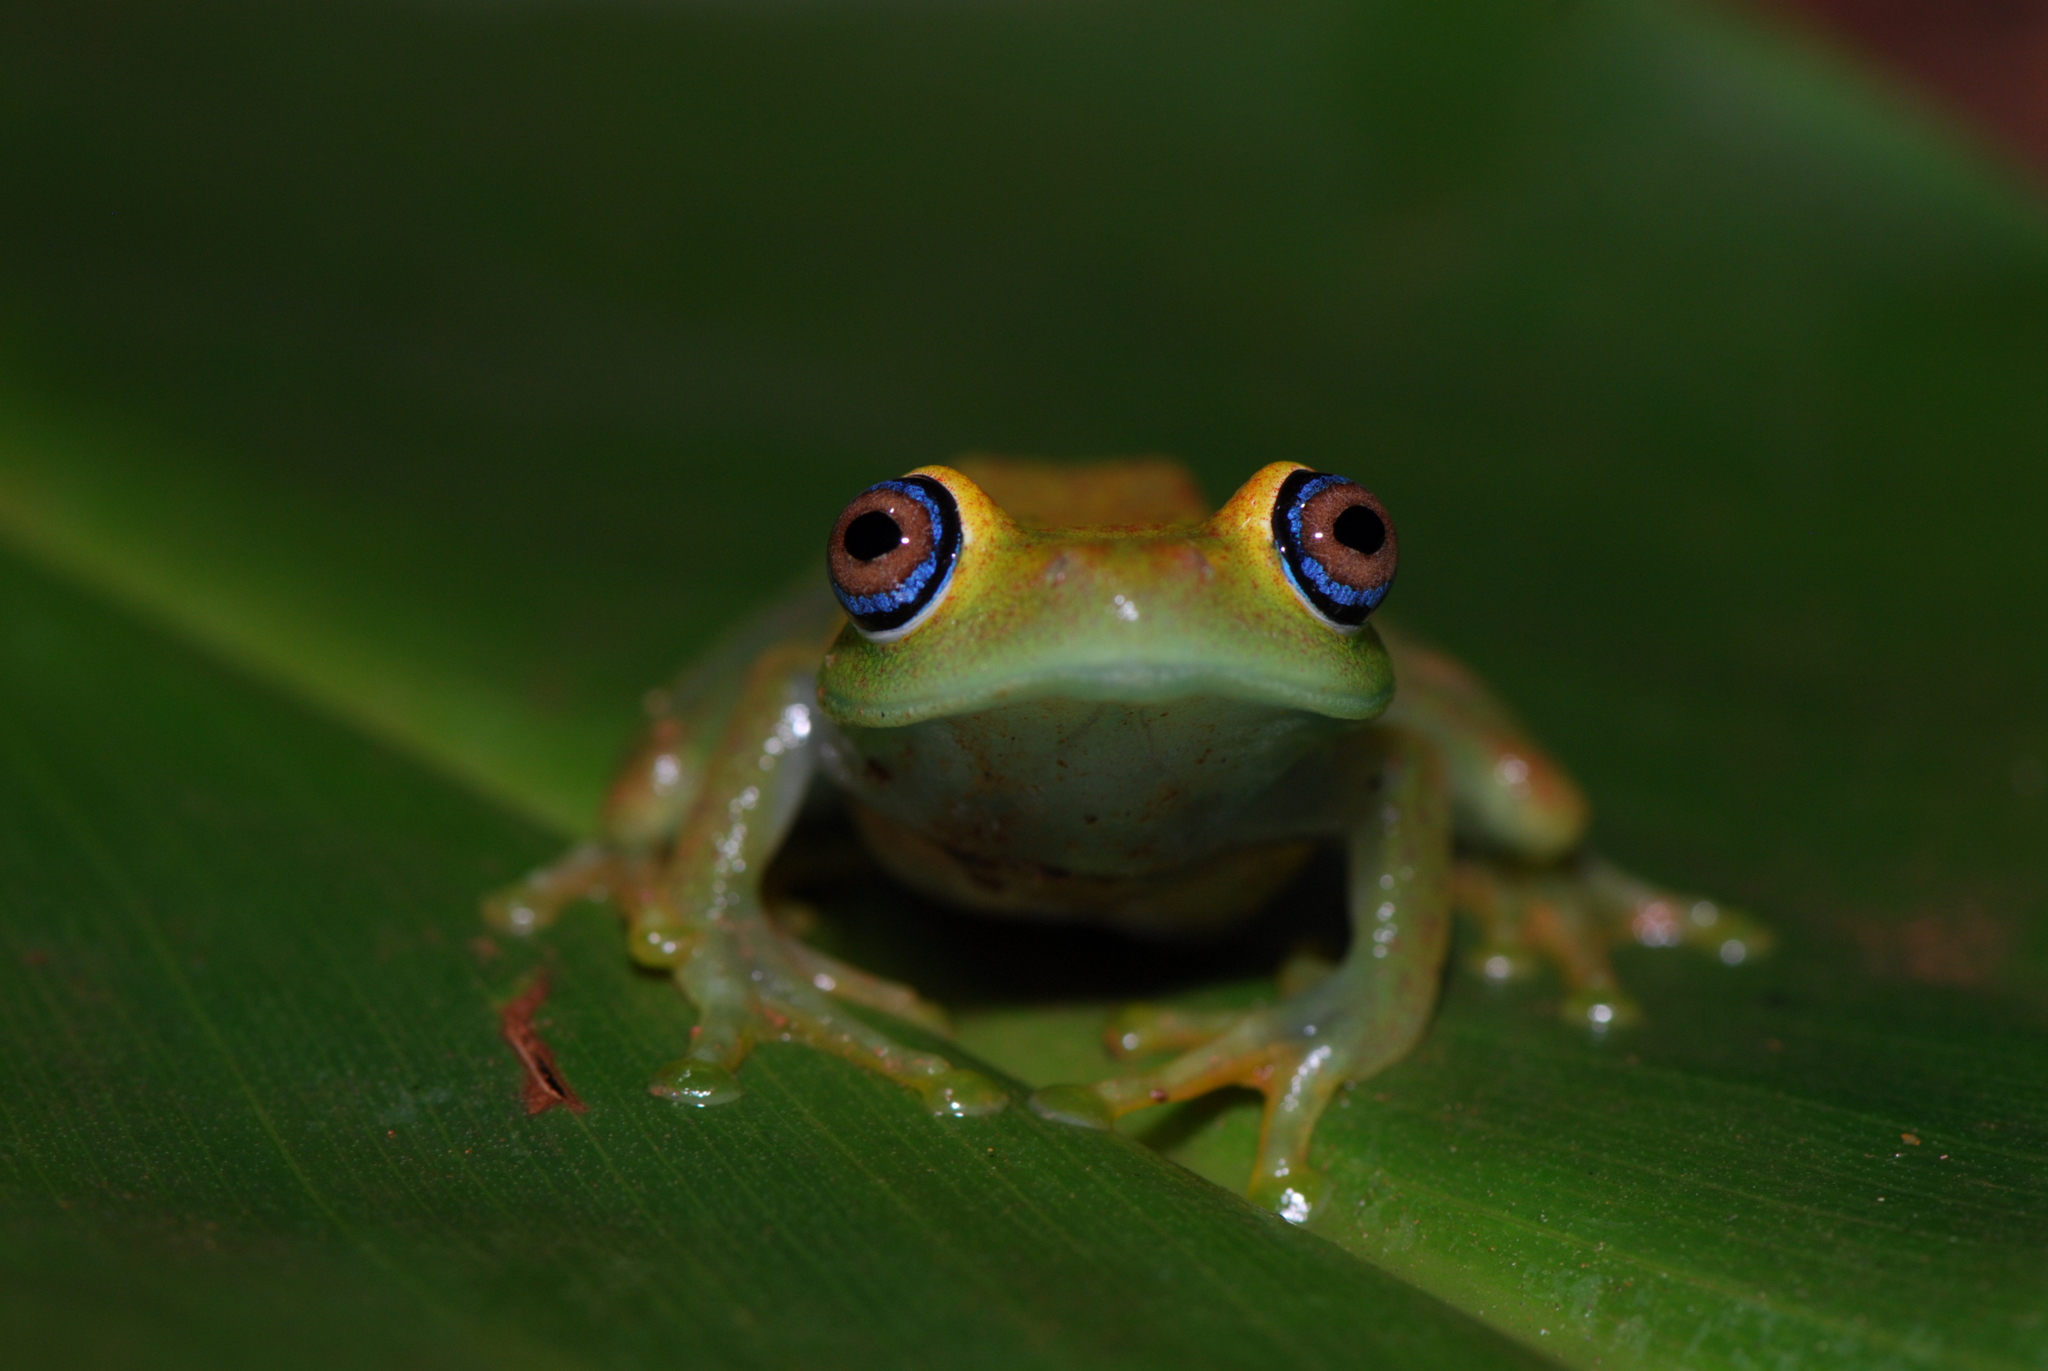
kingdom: Animalia
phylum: Chordata
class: Amphibia
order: Anura
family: Mantellidae
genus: Boophis
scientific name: Boophis viridis
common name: Green bright-eyed frog
